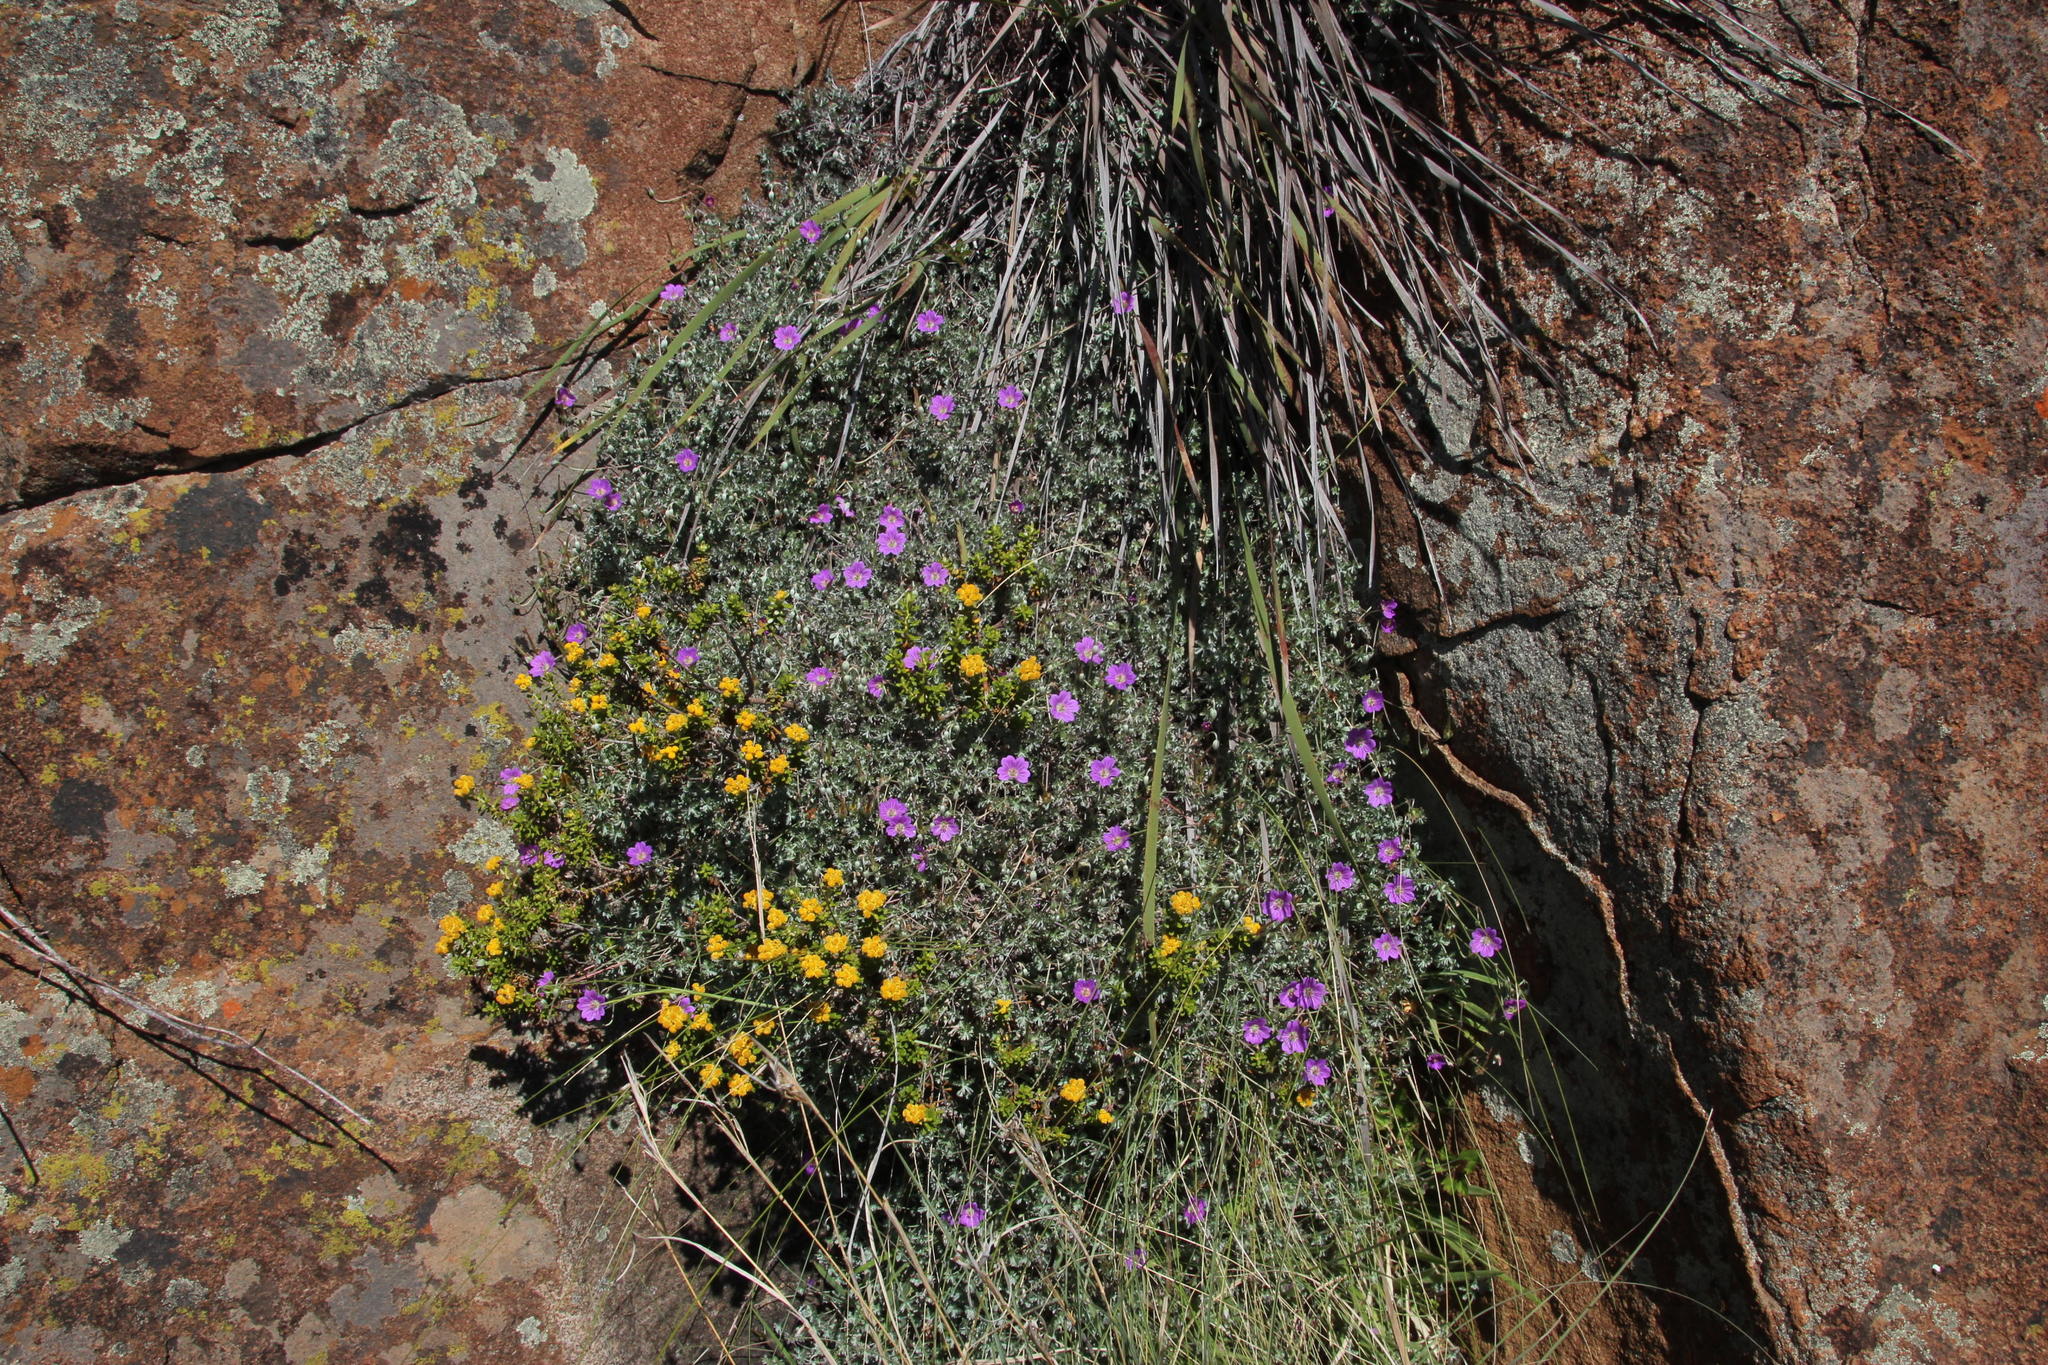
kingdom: Plantae
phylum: Tracheophyta
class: Magnoliopsida
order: Geraniales
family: Geraniaceae
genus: Geranium
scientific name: Geranium harveyi
